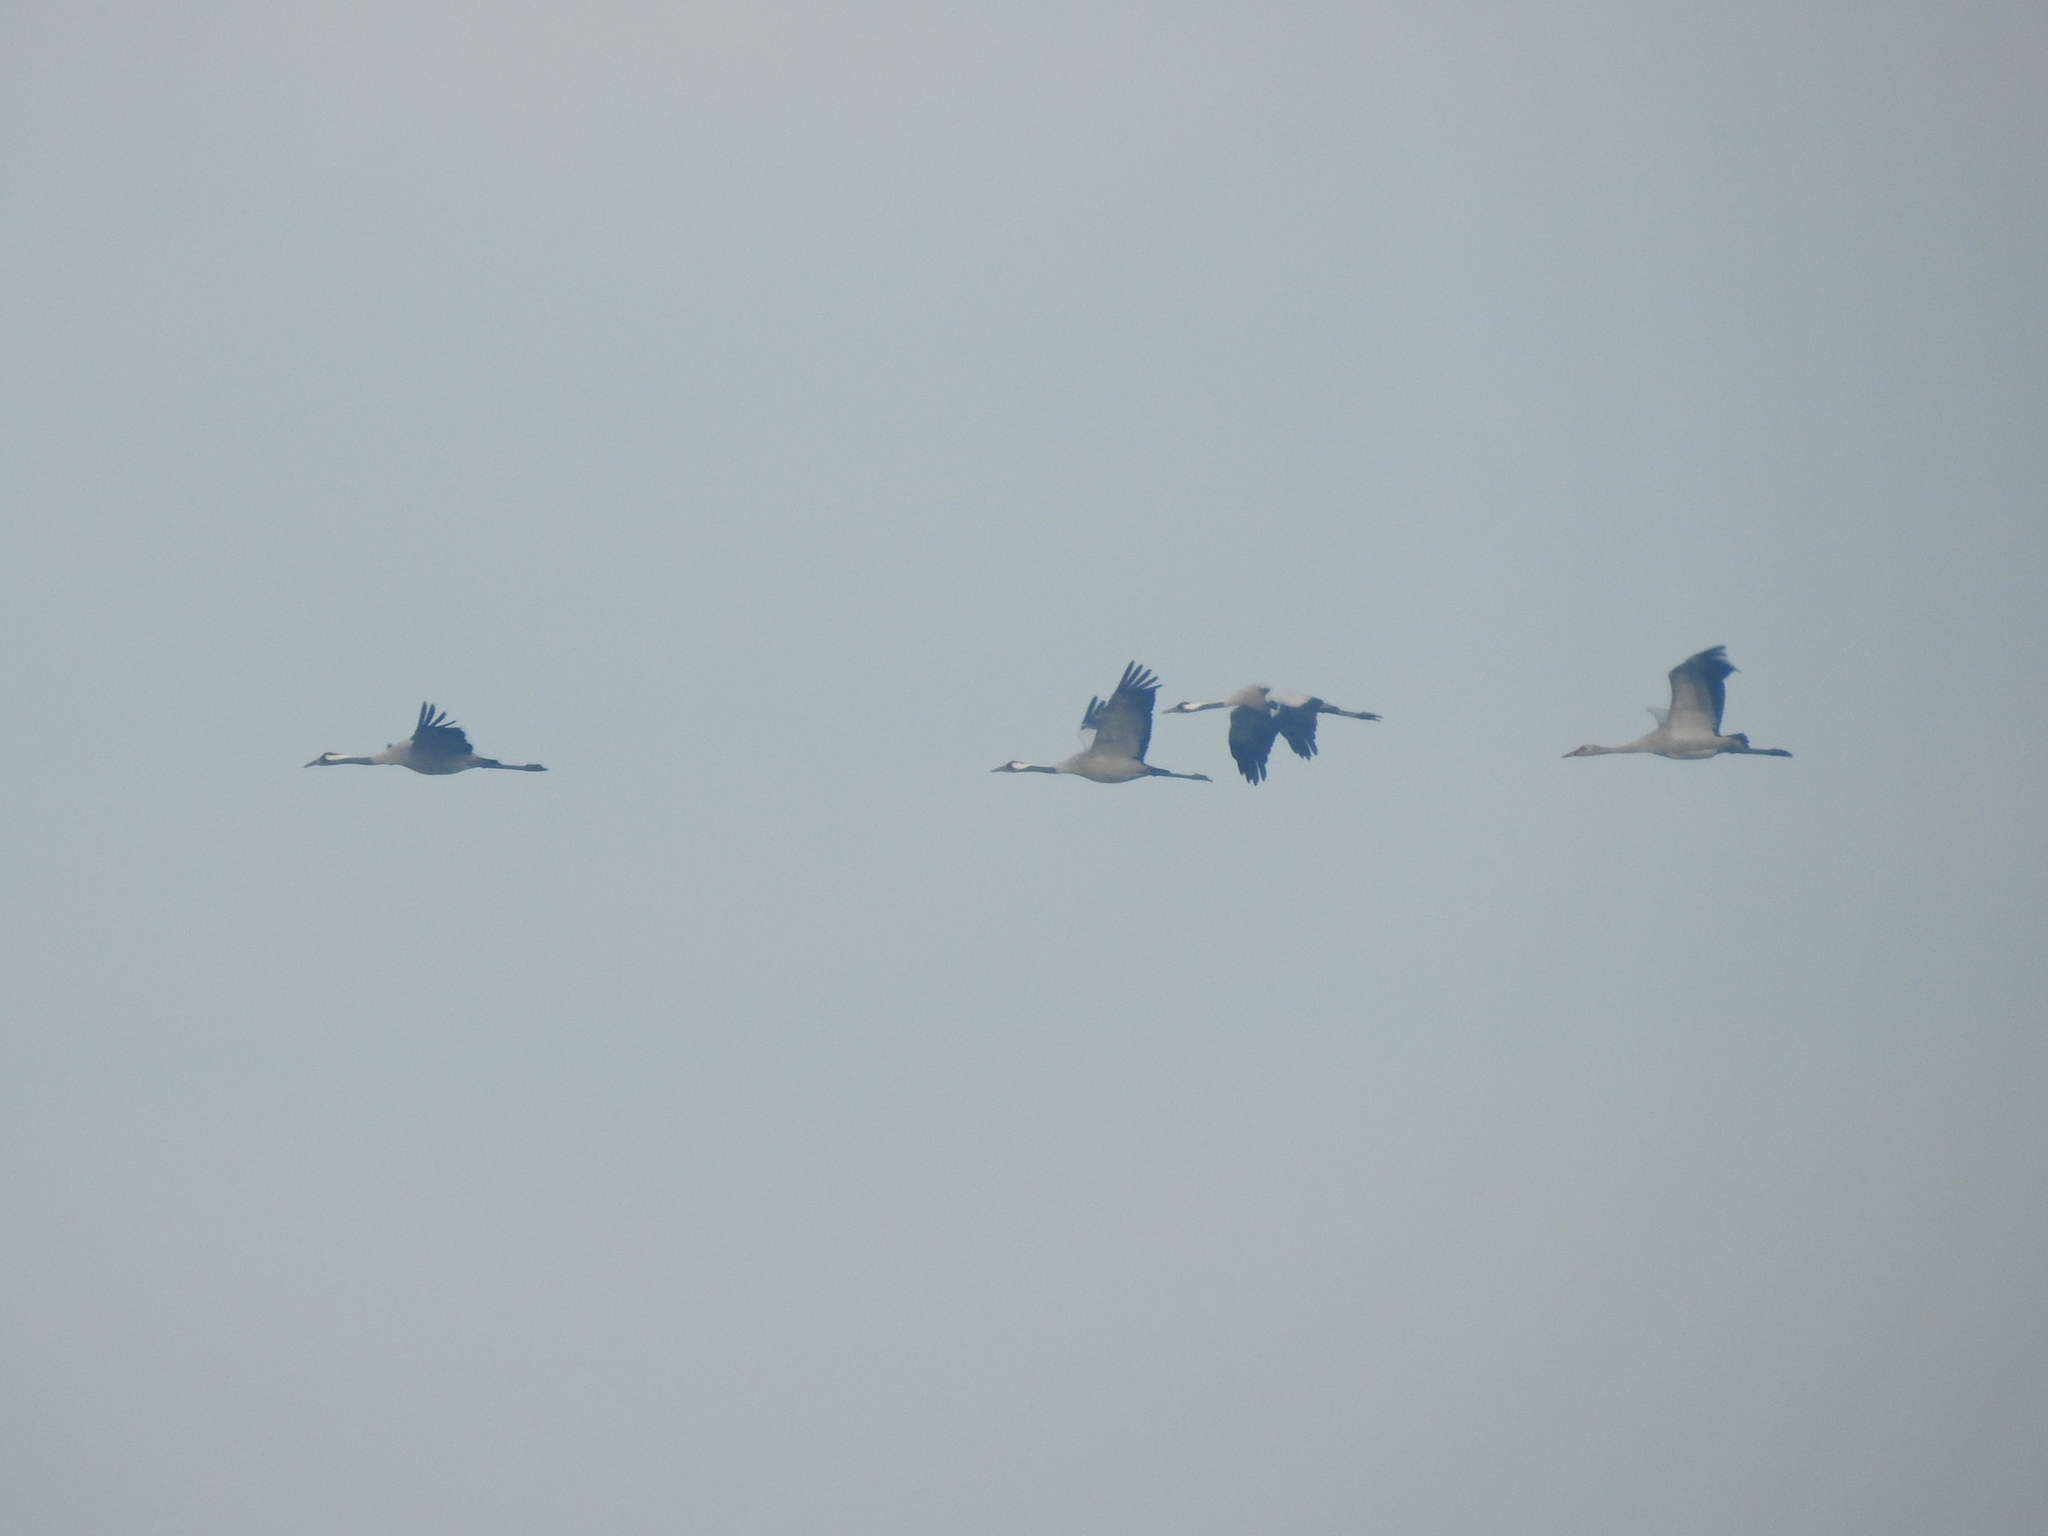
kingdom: Animalia
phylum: Chordata
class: Aves
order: Gruiformes
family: Gruidae
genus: Grus
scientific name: Grus grus
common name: Common crane
